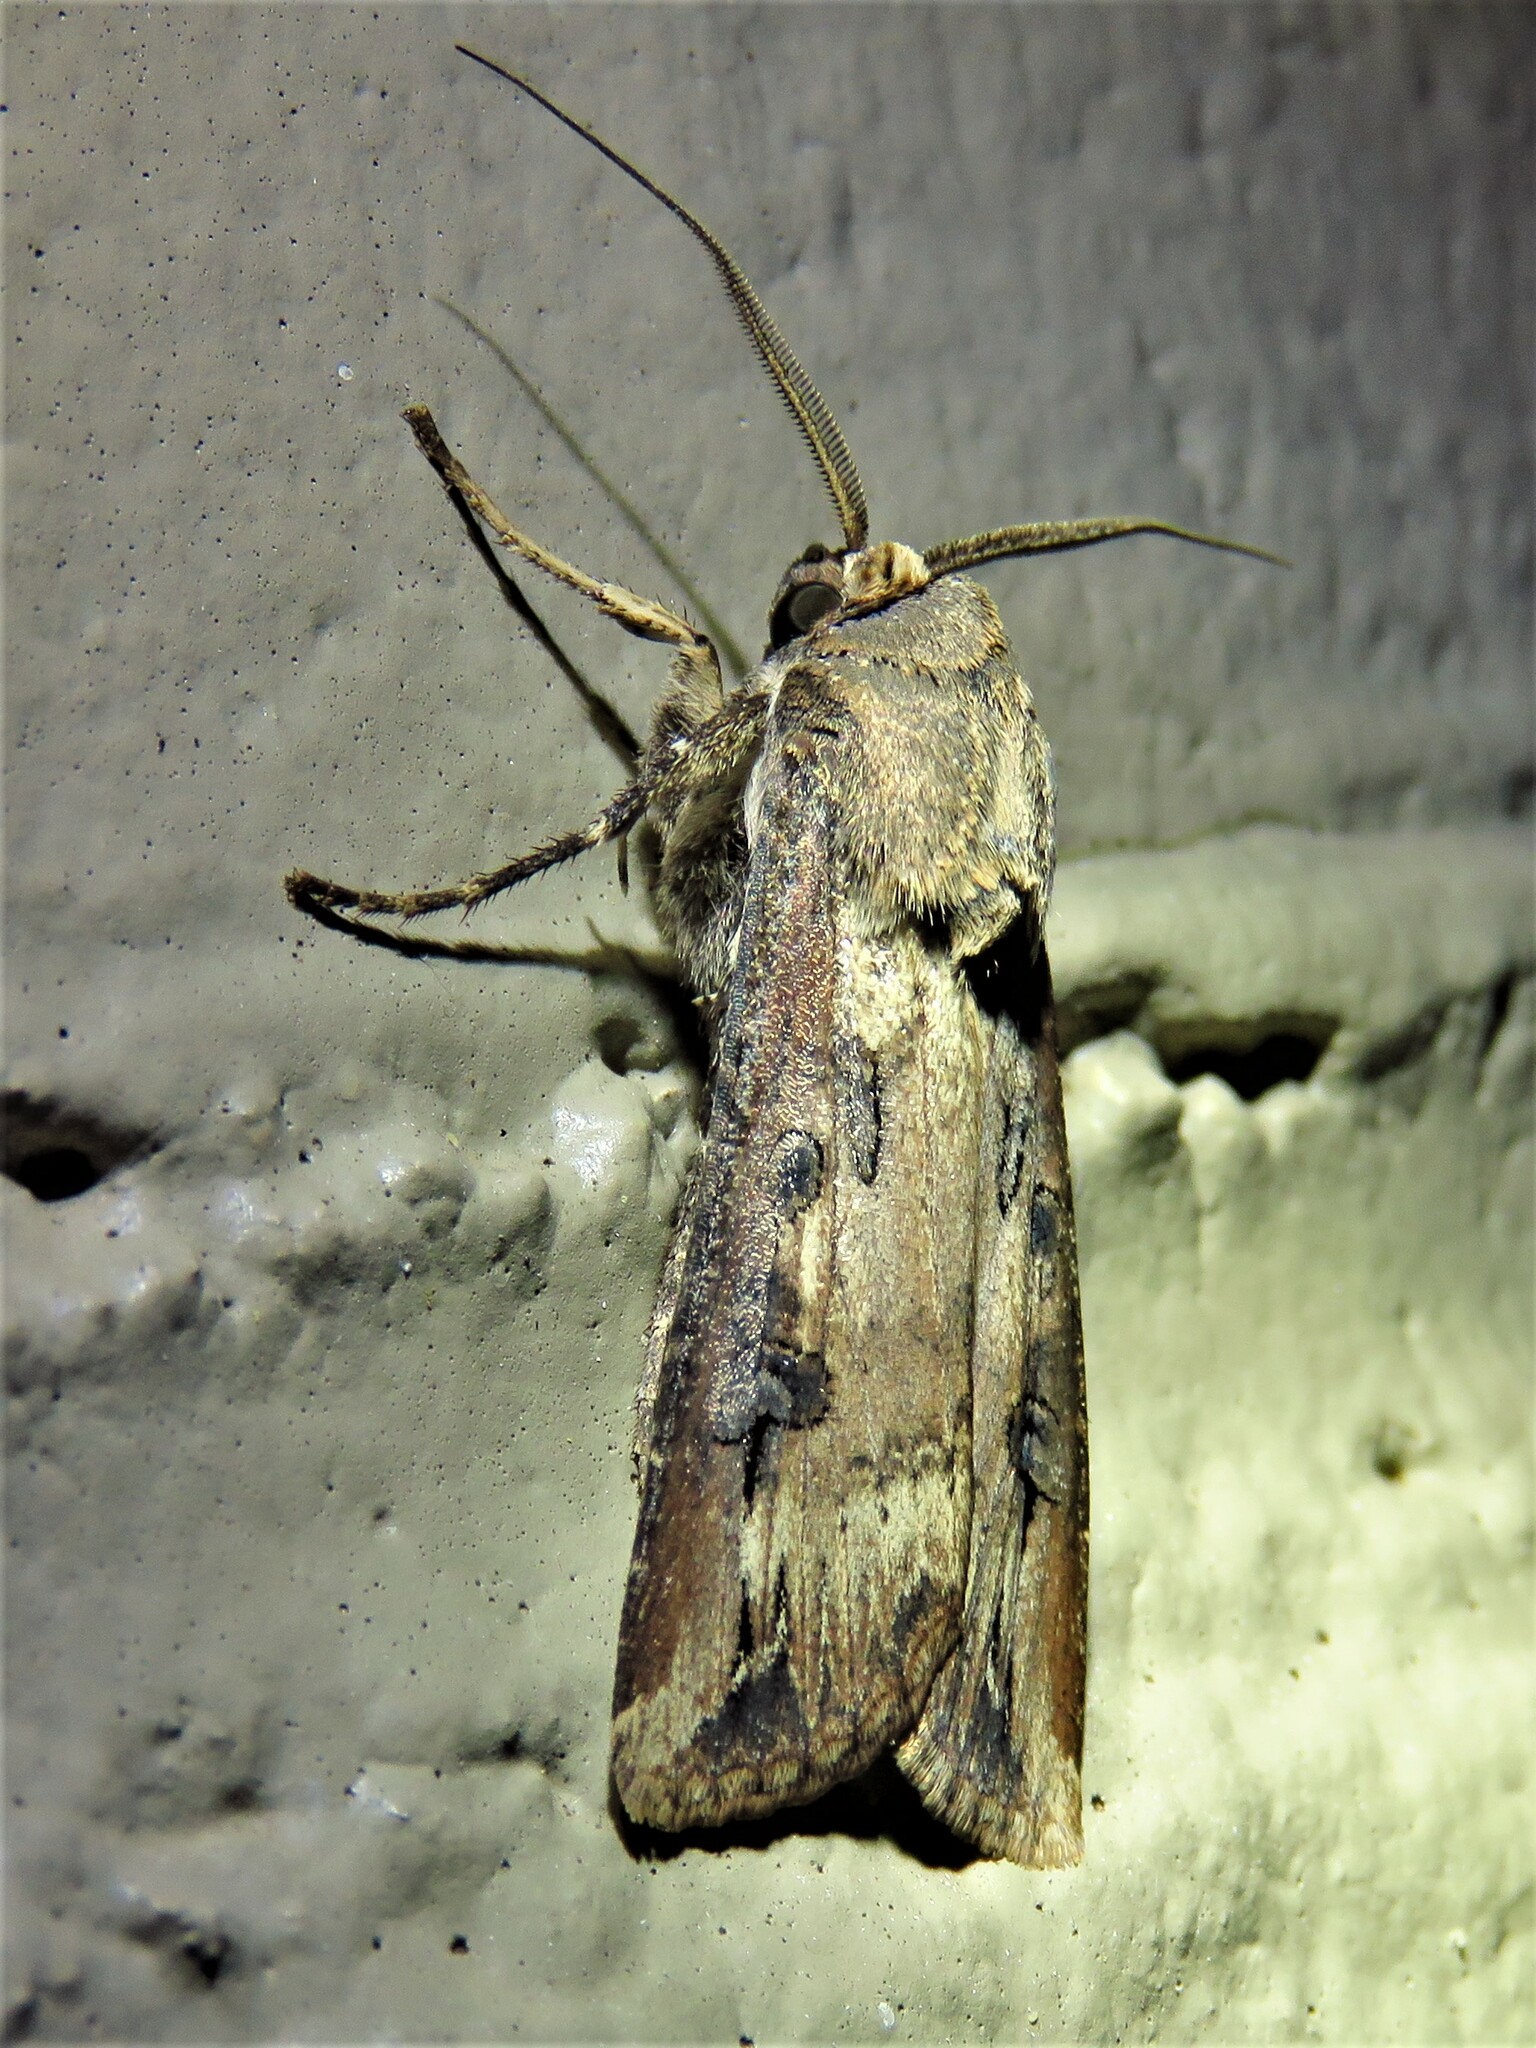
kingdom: Animalia
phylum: Arthropoda
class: Insecta
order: Lepidoptera
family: Noctuidae
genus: Agrotis
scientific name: Agrotis ipsilon
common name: Dark sword-grass
